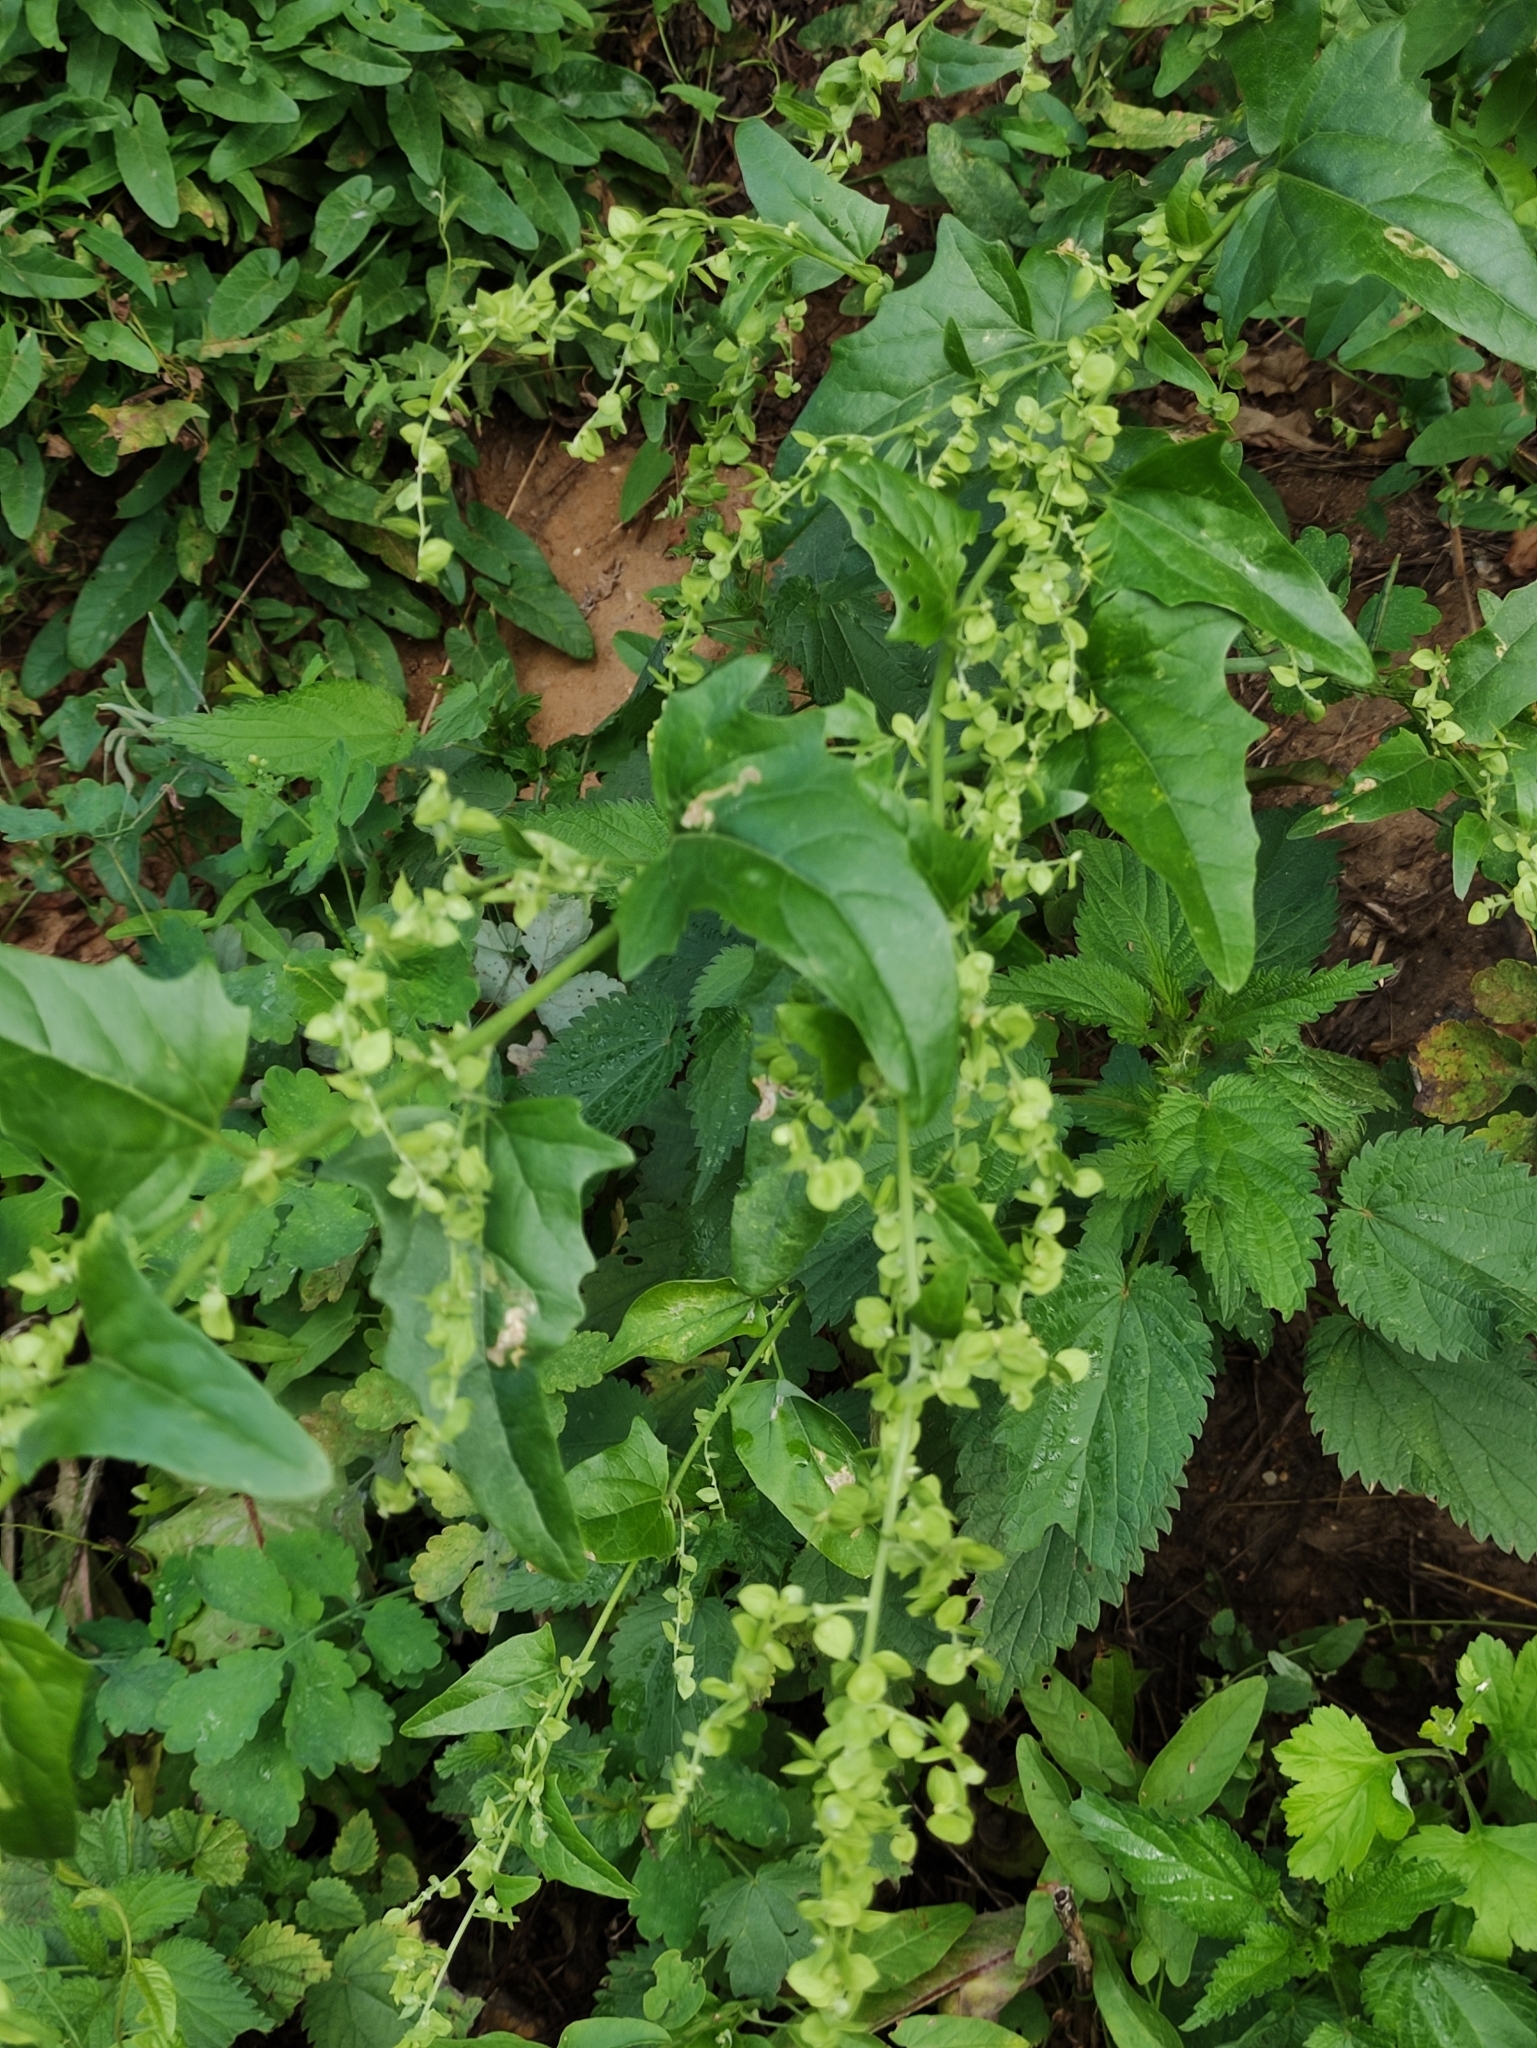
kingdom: Plantae
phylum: Tracheophyta
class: Magnoliopsida
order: Caryophyllales
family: Amaranthaceae
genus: Atriplex
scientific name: Atriplex sagittata
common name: Purple orache
